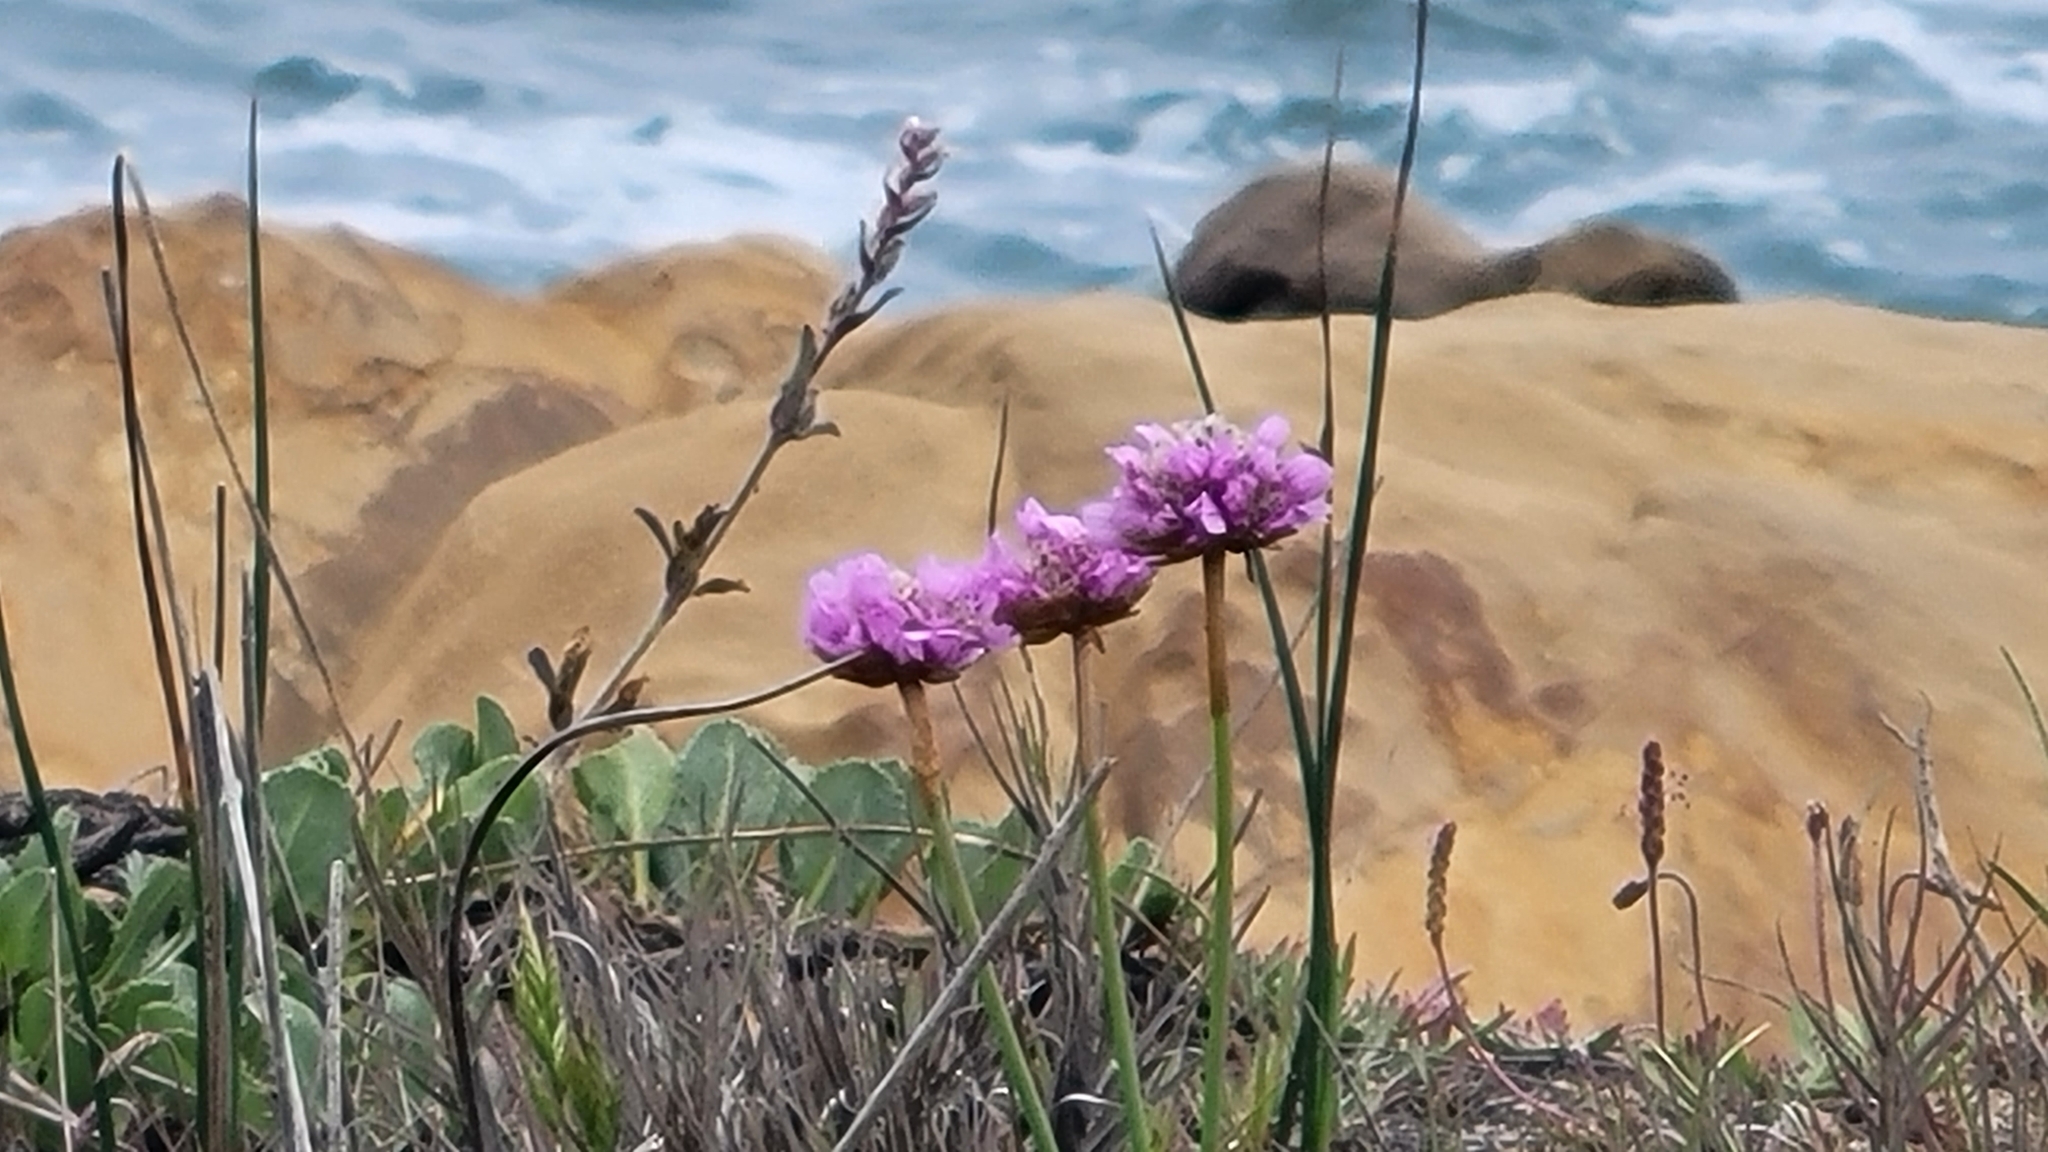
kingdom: Plantae
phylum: Tracheophyta
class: Magnoliopsida
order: Caryophyllales
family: Plumbaginaceae
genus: Armeria
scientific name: Armeria maritima
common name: Thrift
